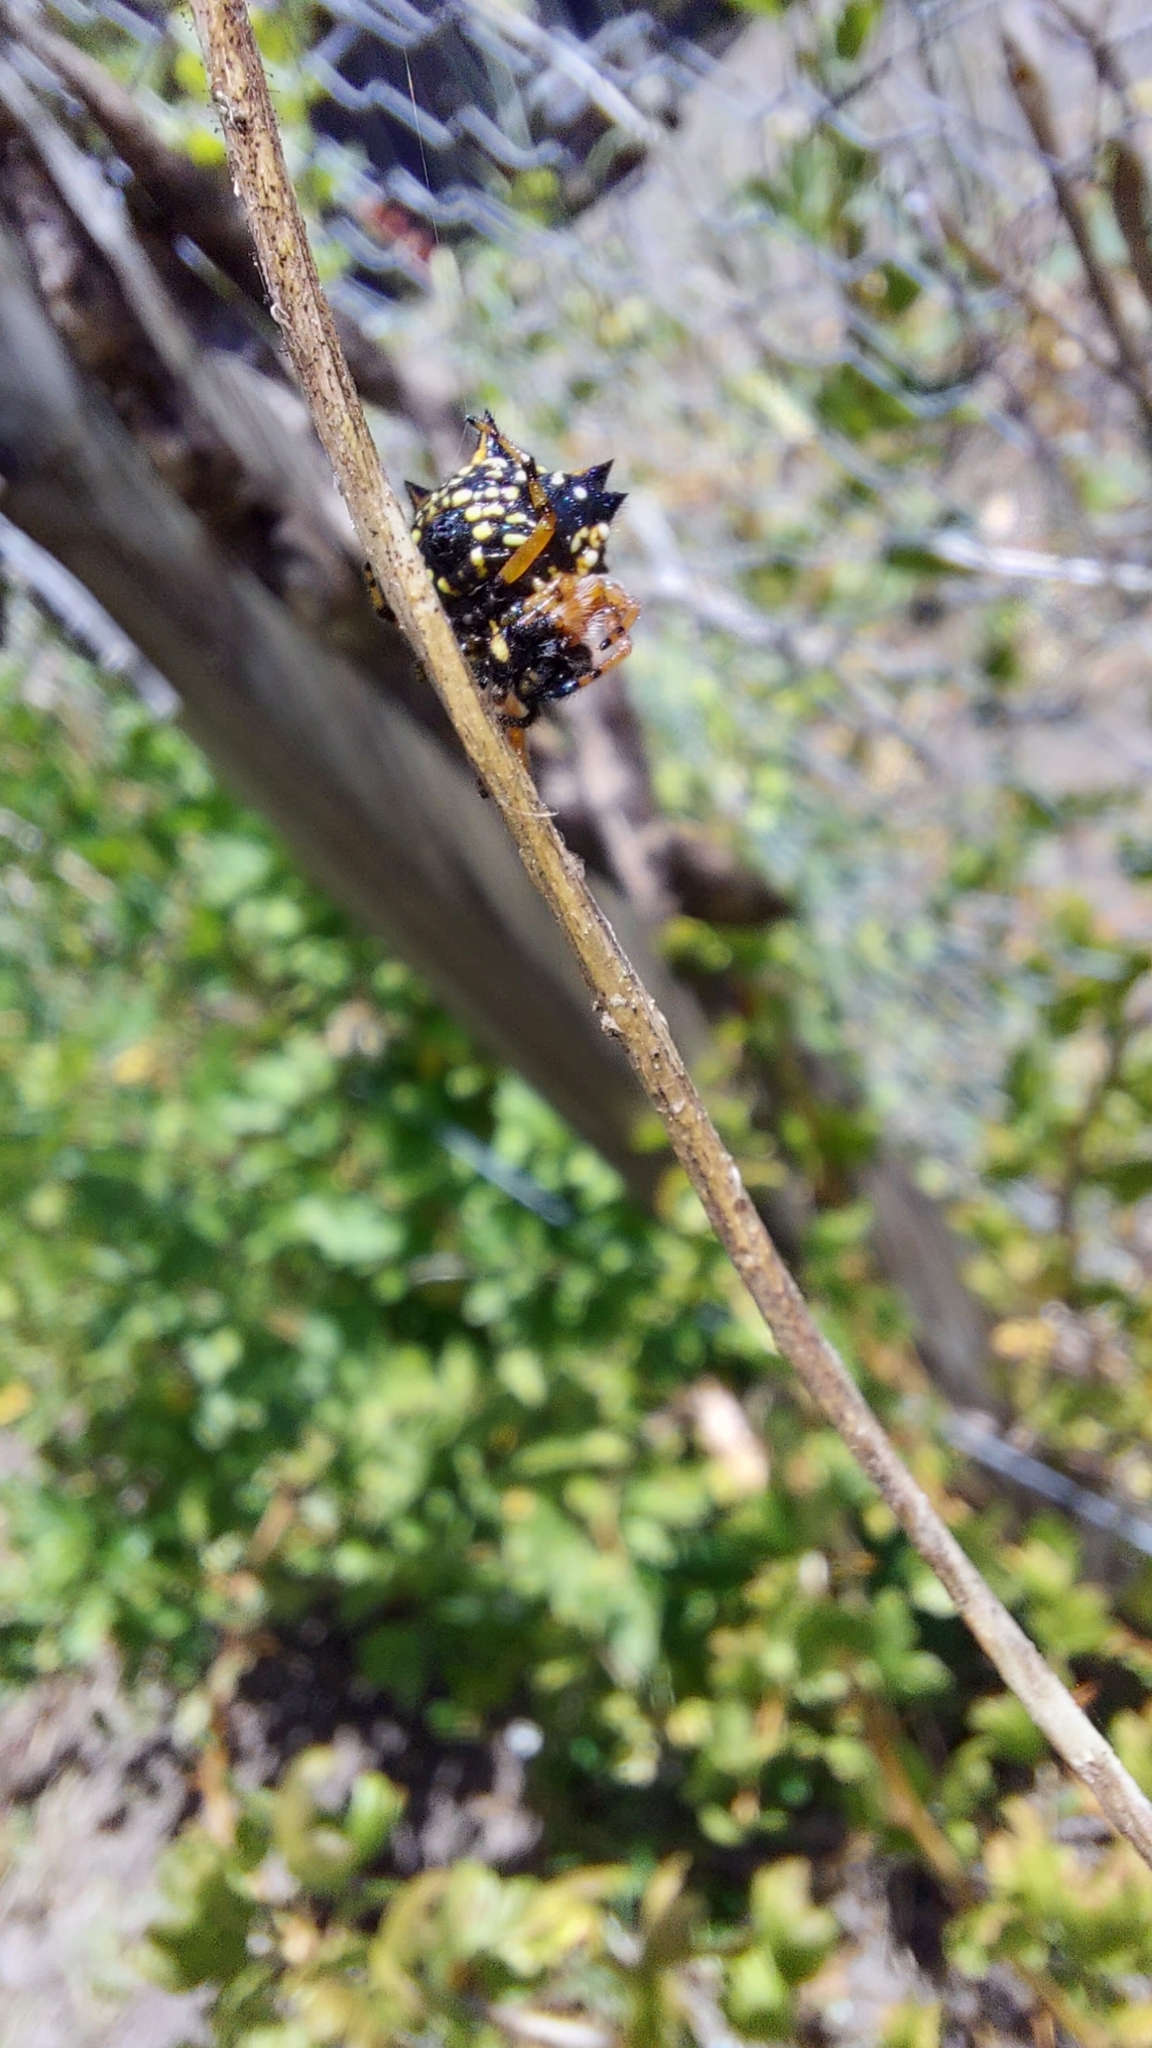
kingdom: Animalia
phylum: Arthropoda
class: Arachnida
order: Araneae
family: Araneidae
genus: Austracantha
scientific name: Austracantha minax
